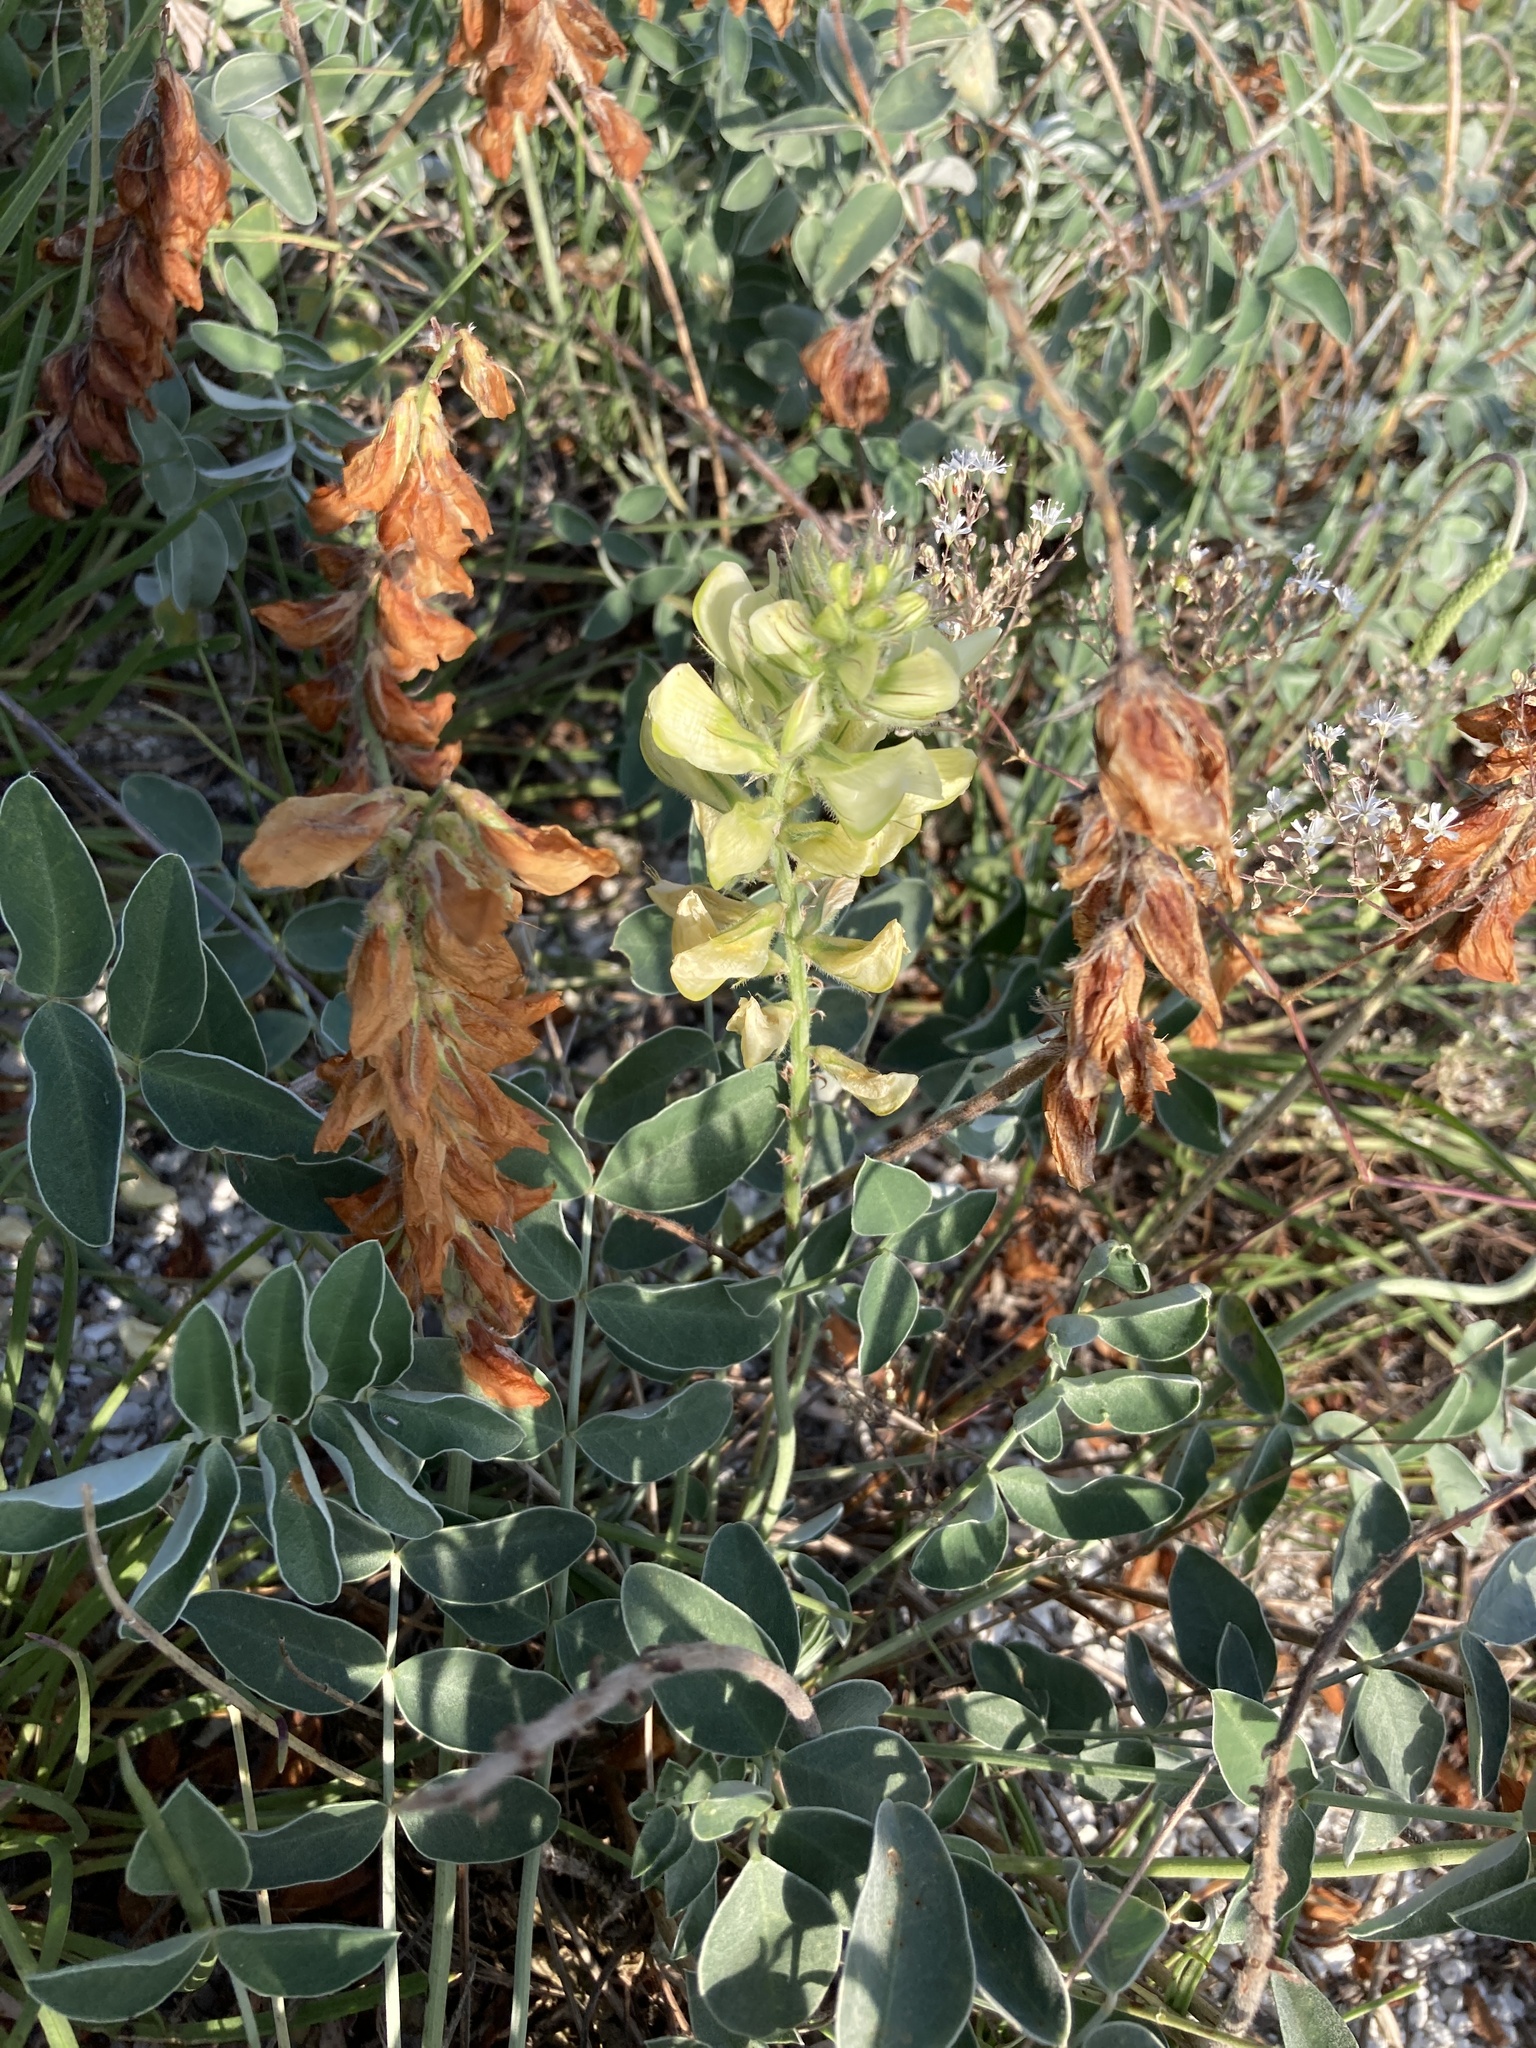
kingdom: Plantae
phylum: Tracheophyta
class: Magnoliopsida
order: Fabales
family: Fabaceae
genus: Hedysarum
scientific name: Hedysarum grandiflorum
